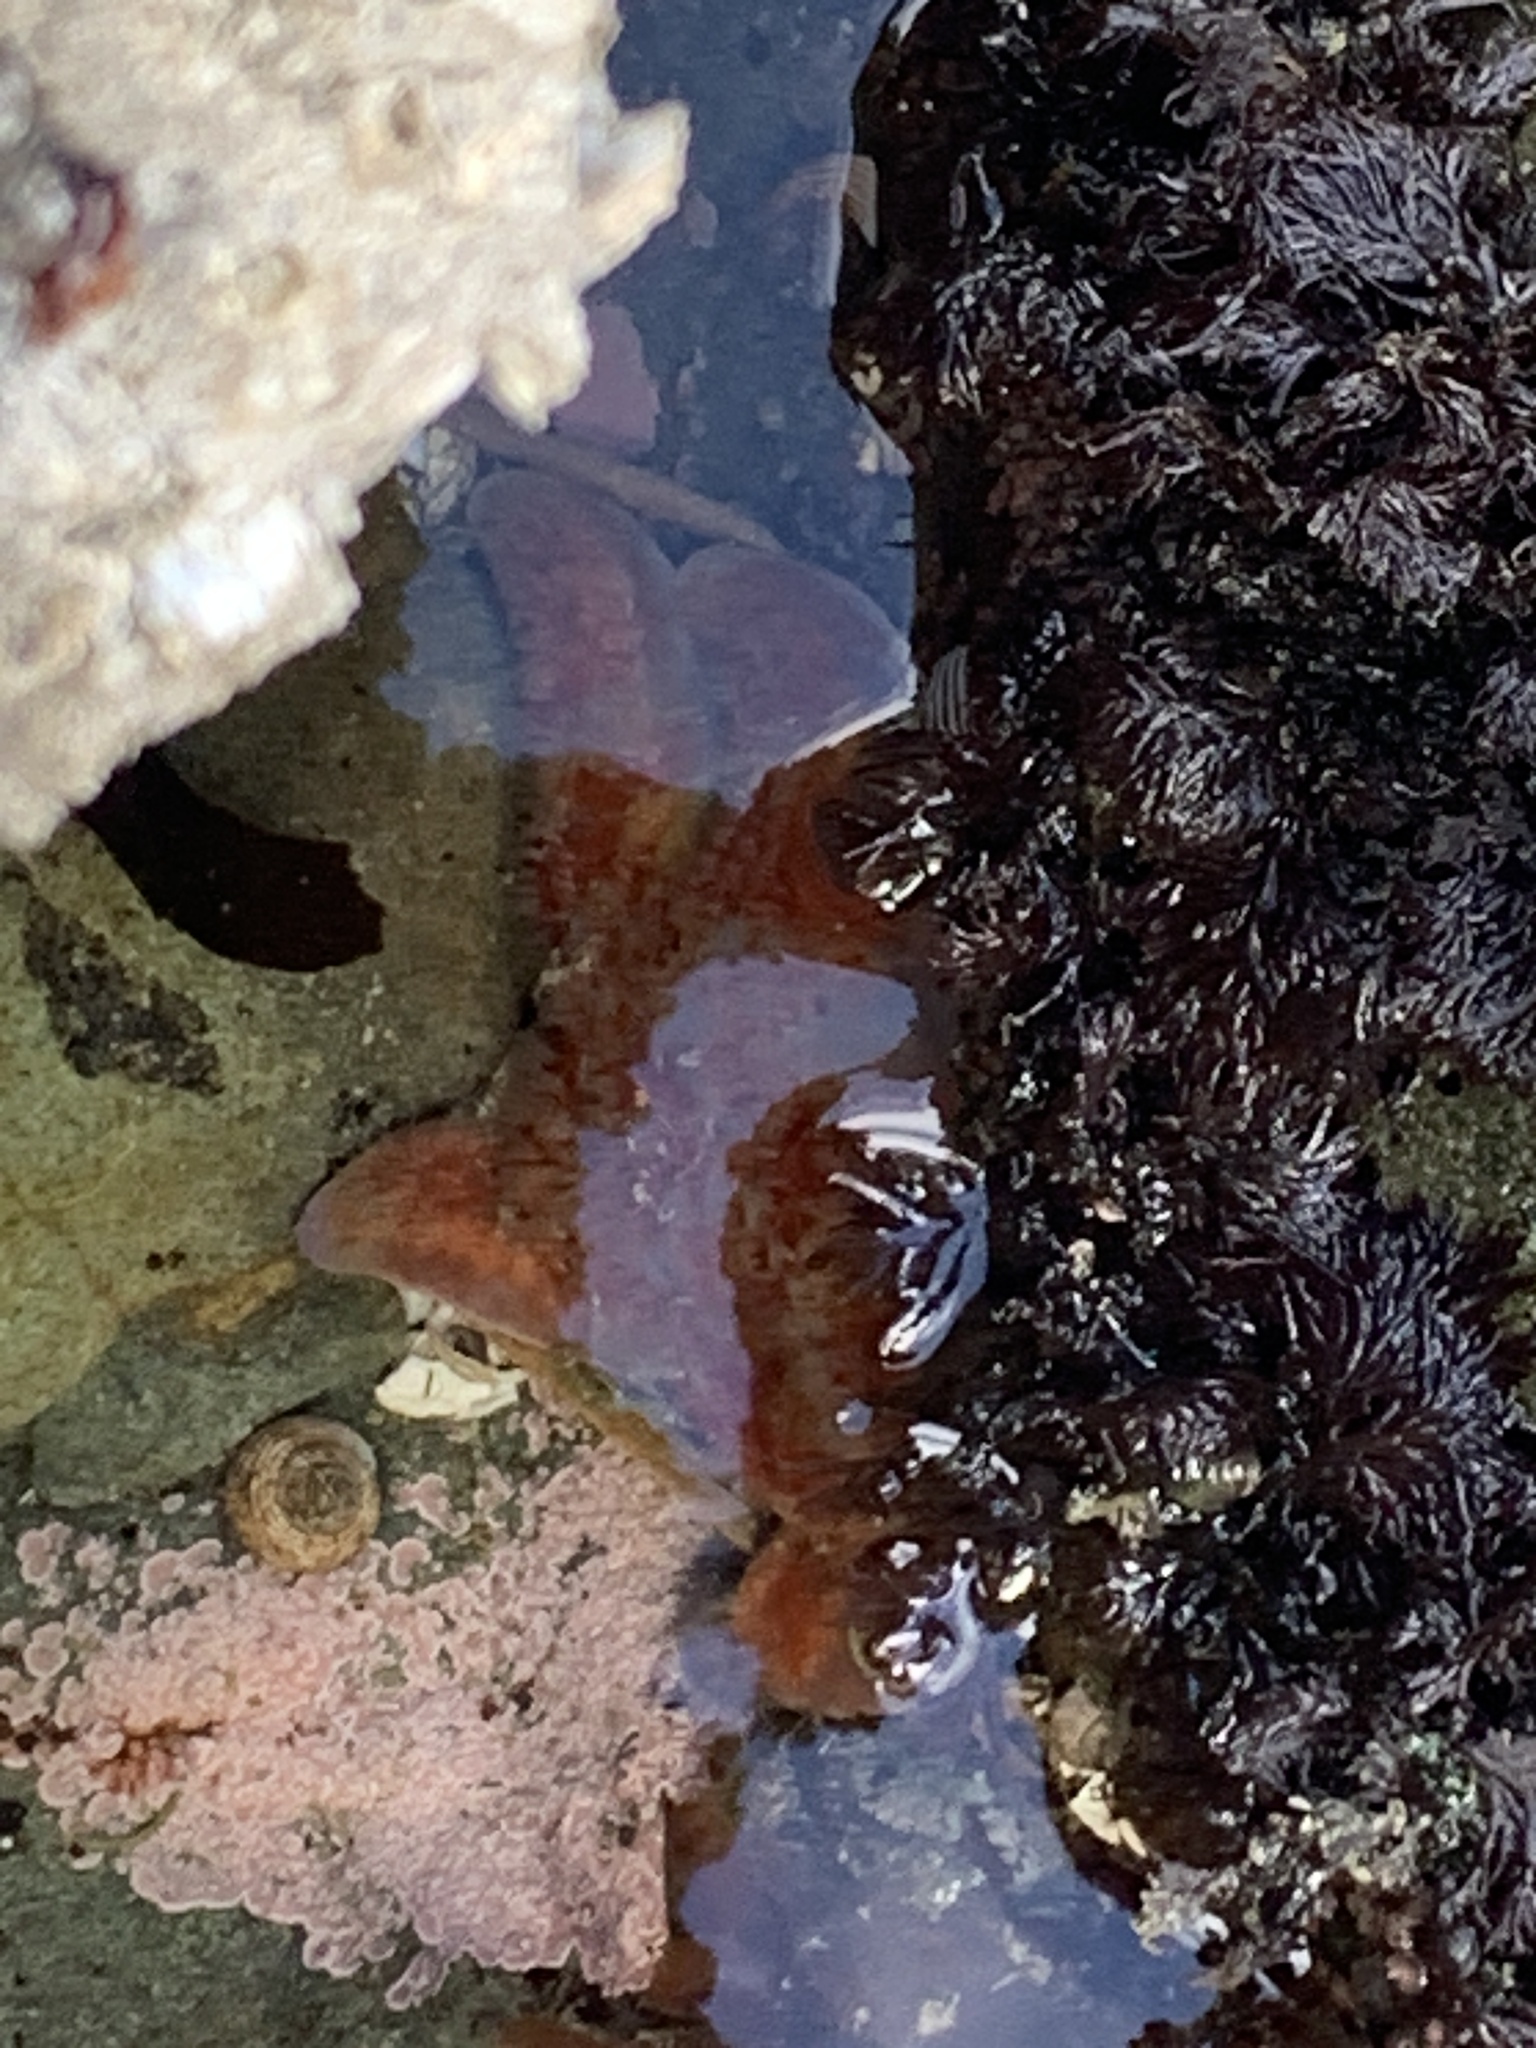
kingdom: Animalia
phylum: Echinodermata
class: Asteroidea
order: Valvatida
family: Asteropseidae
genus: Dermasterias
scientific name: Dermasterias imbricata
